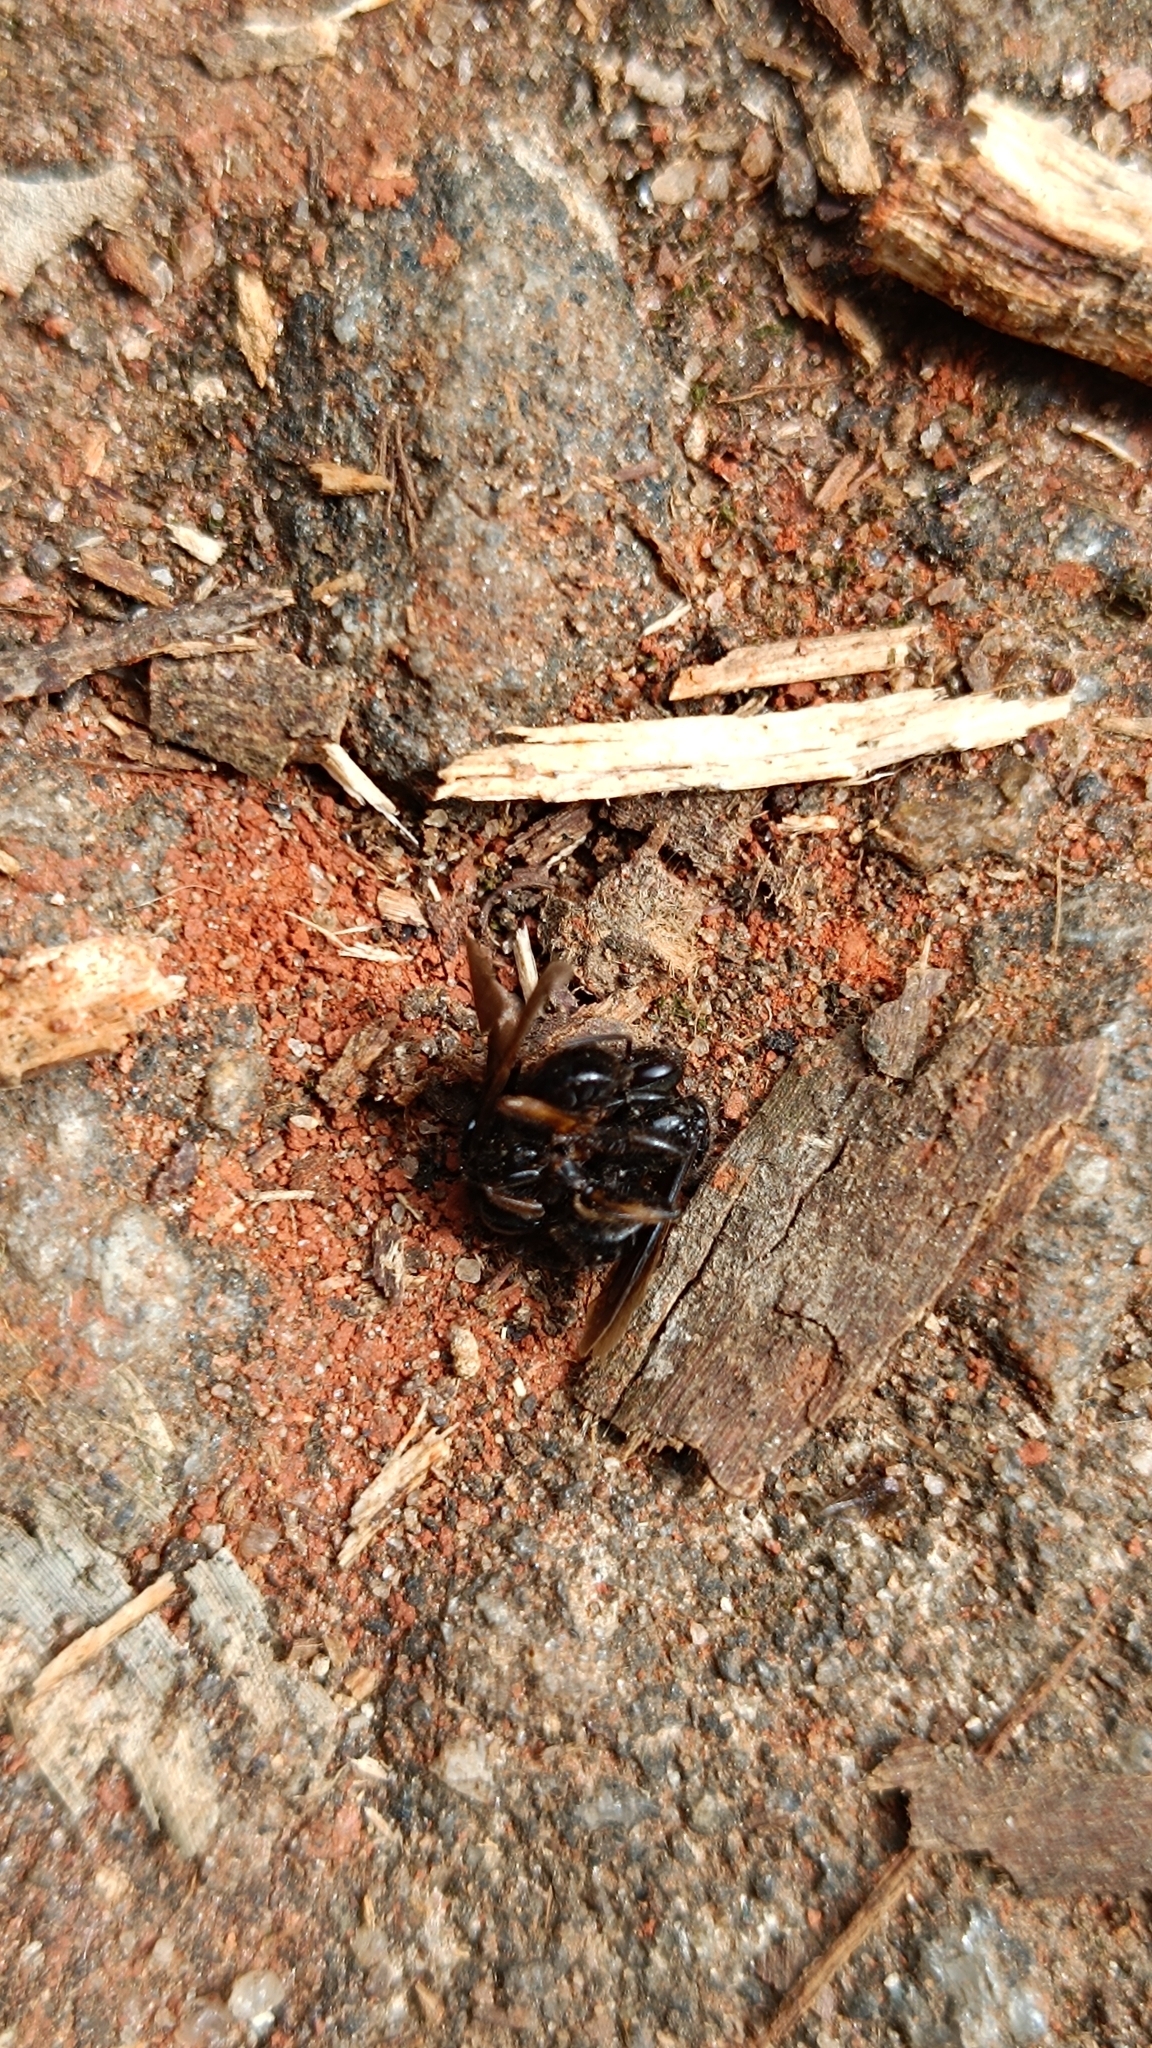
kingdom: Animalia
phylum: Arthropoda
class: Insecta
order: Hymenoptera
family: Apidae
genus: Trigona
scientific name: Trigona spinipes
